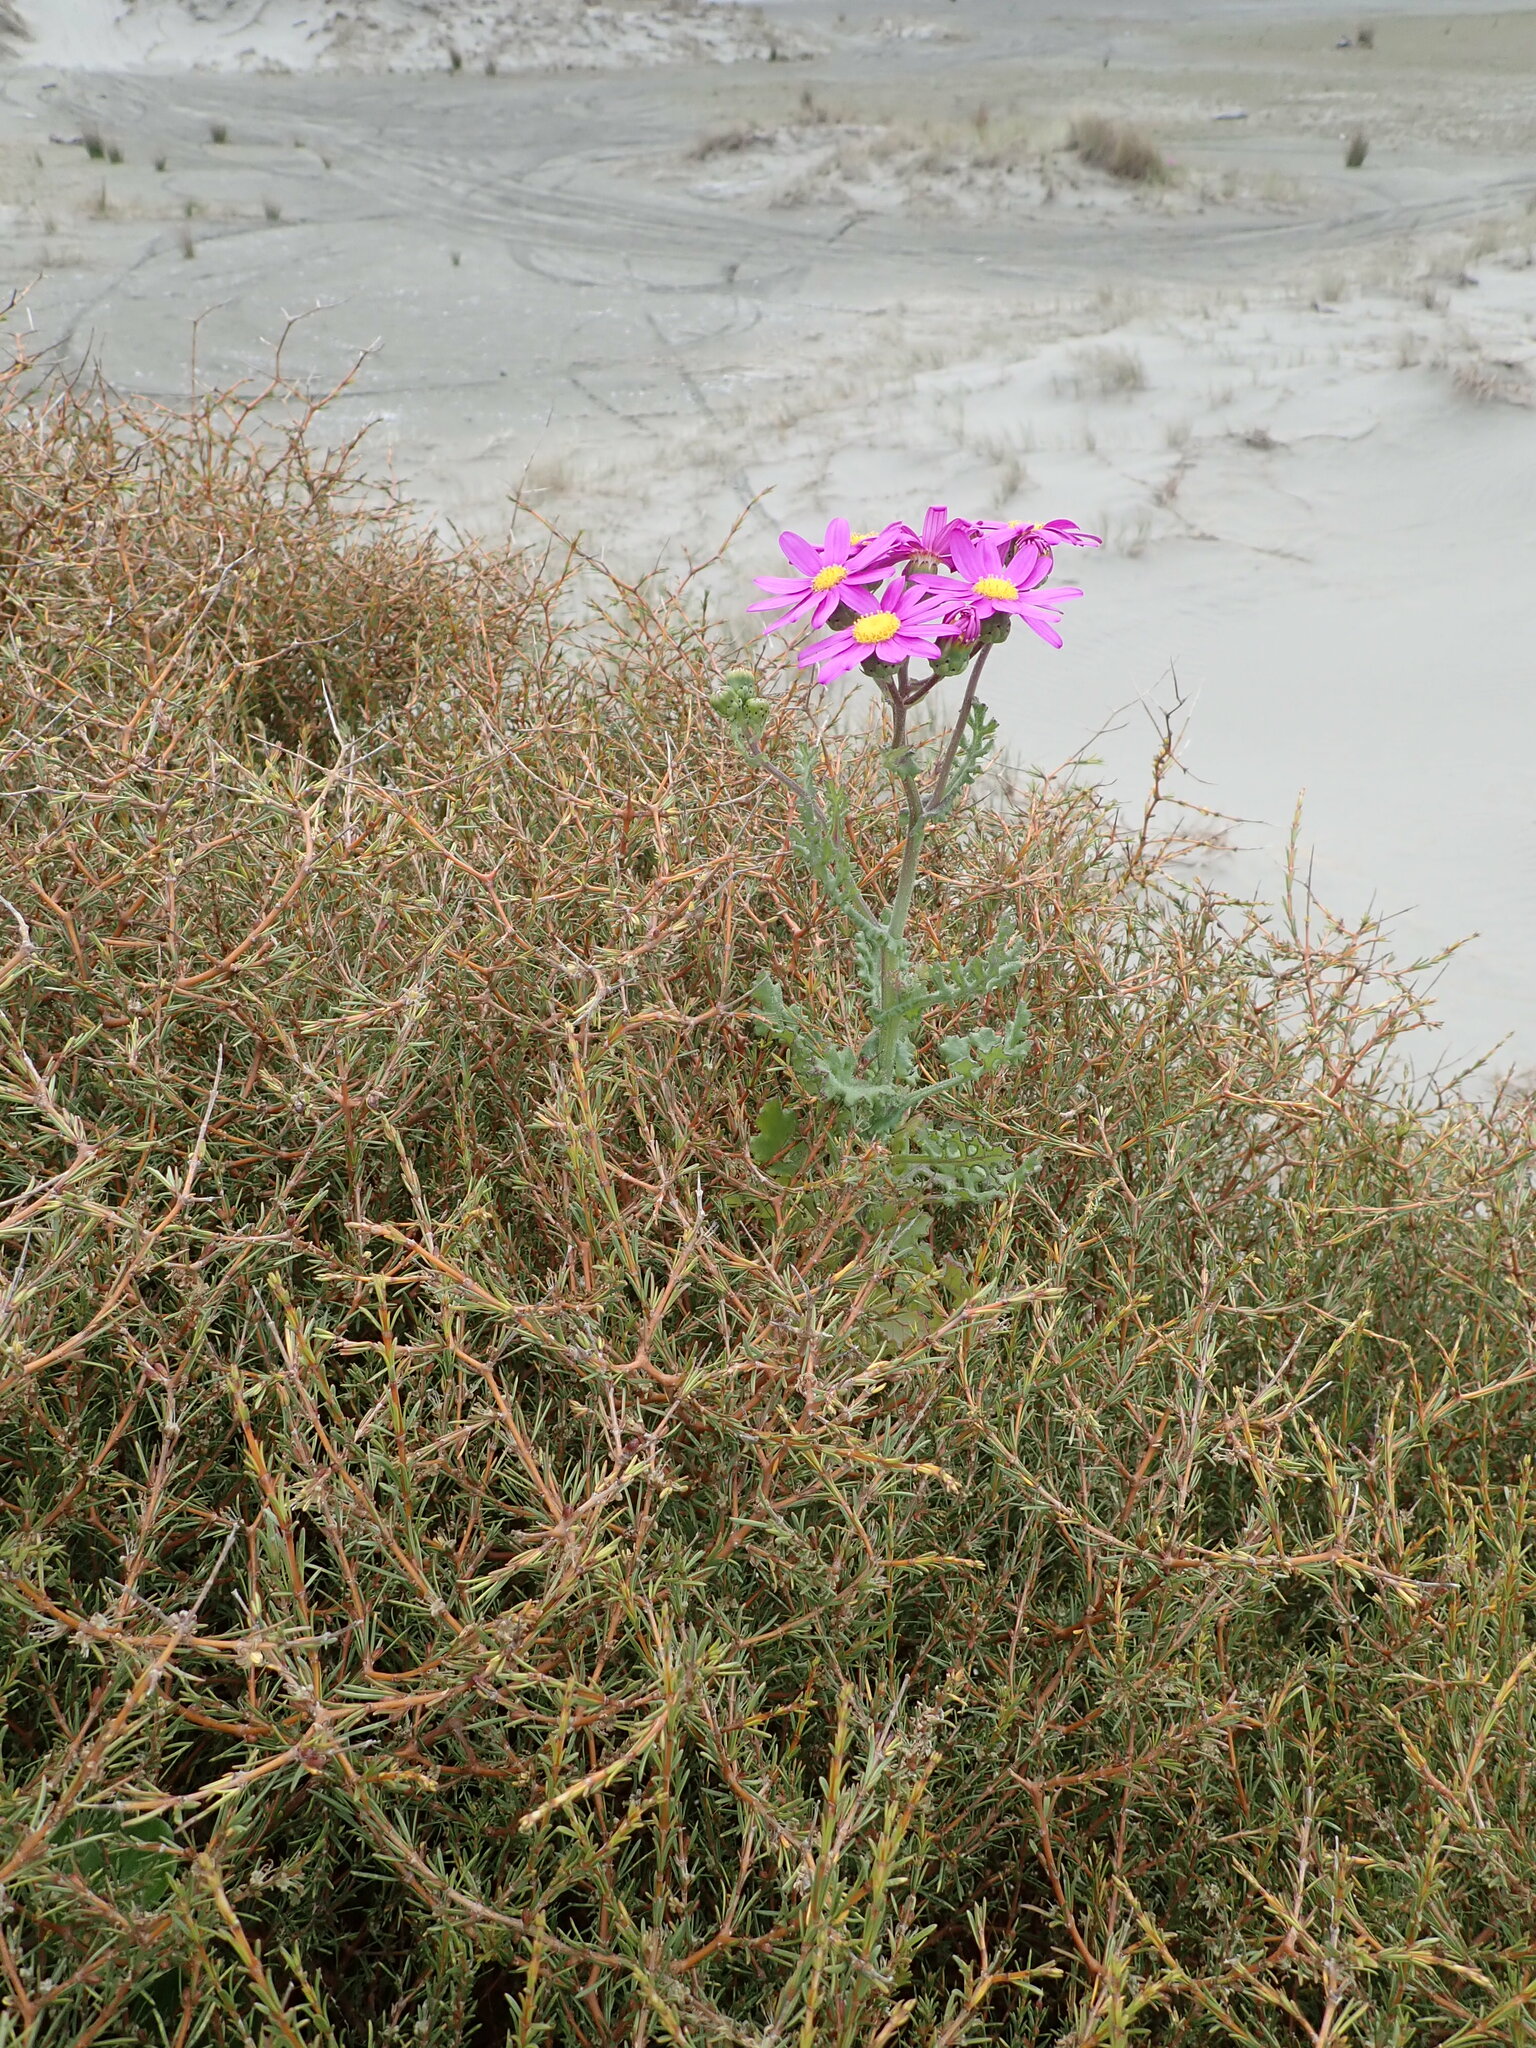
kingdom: Plantae
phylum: Tracheophyta
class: Magnoliopsida
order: Asterales
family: Asteraceae
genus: Senecio
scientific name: Senecio elegans
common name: Purple groundsel
